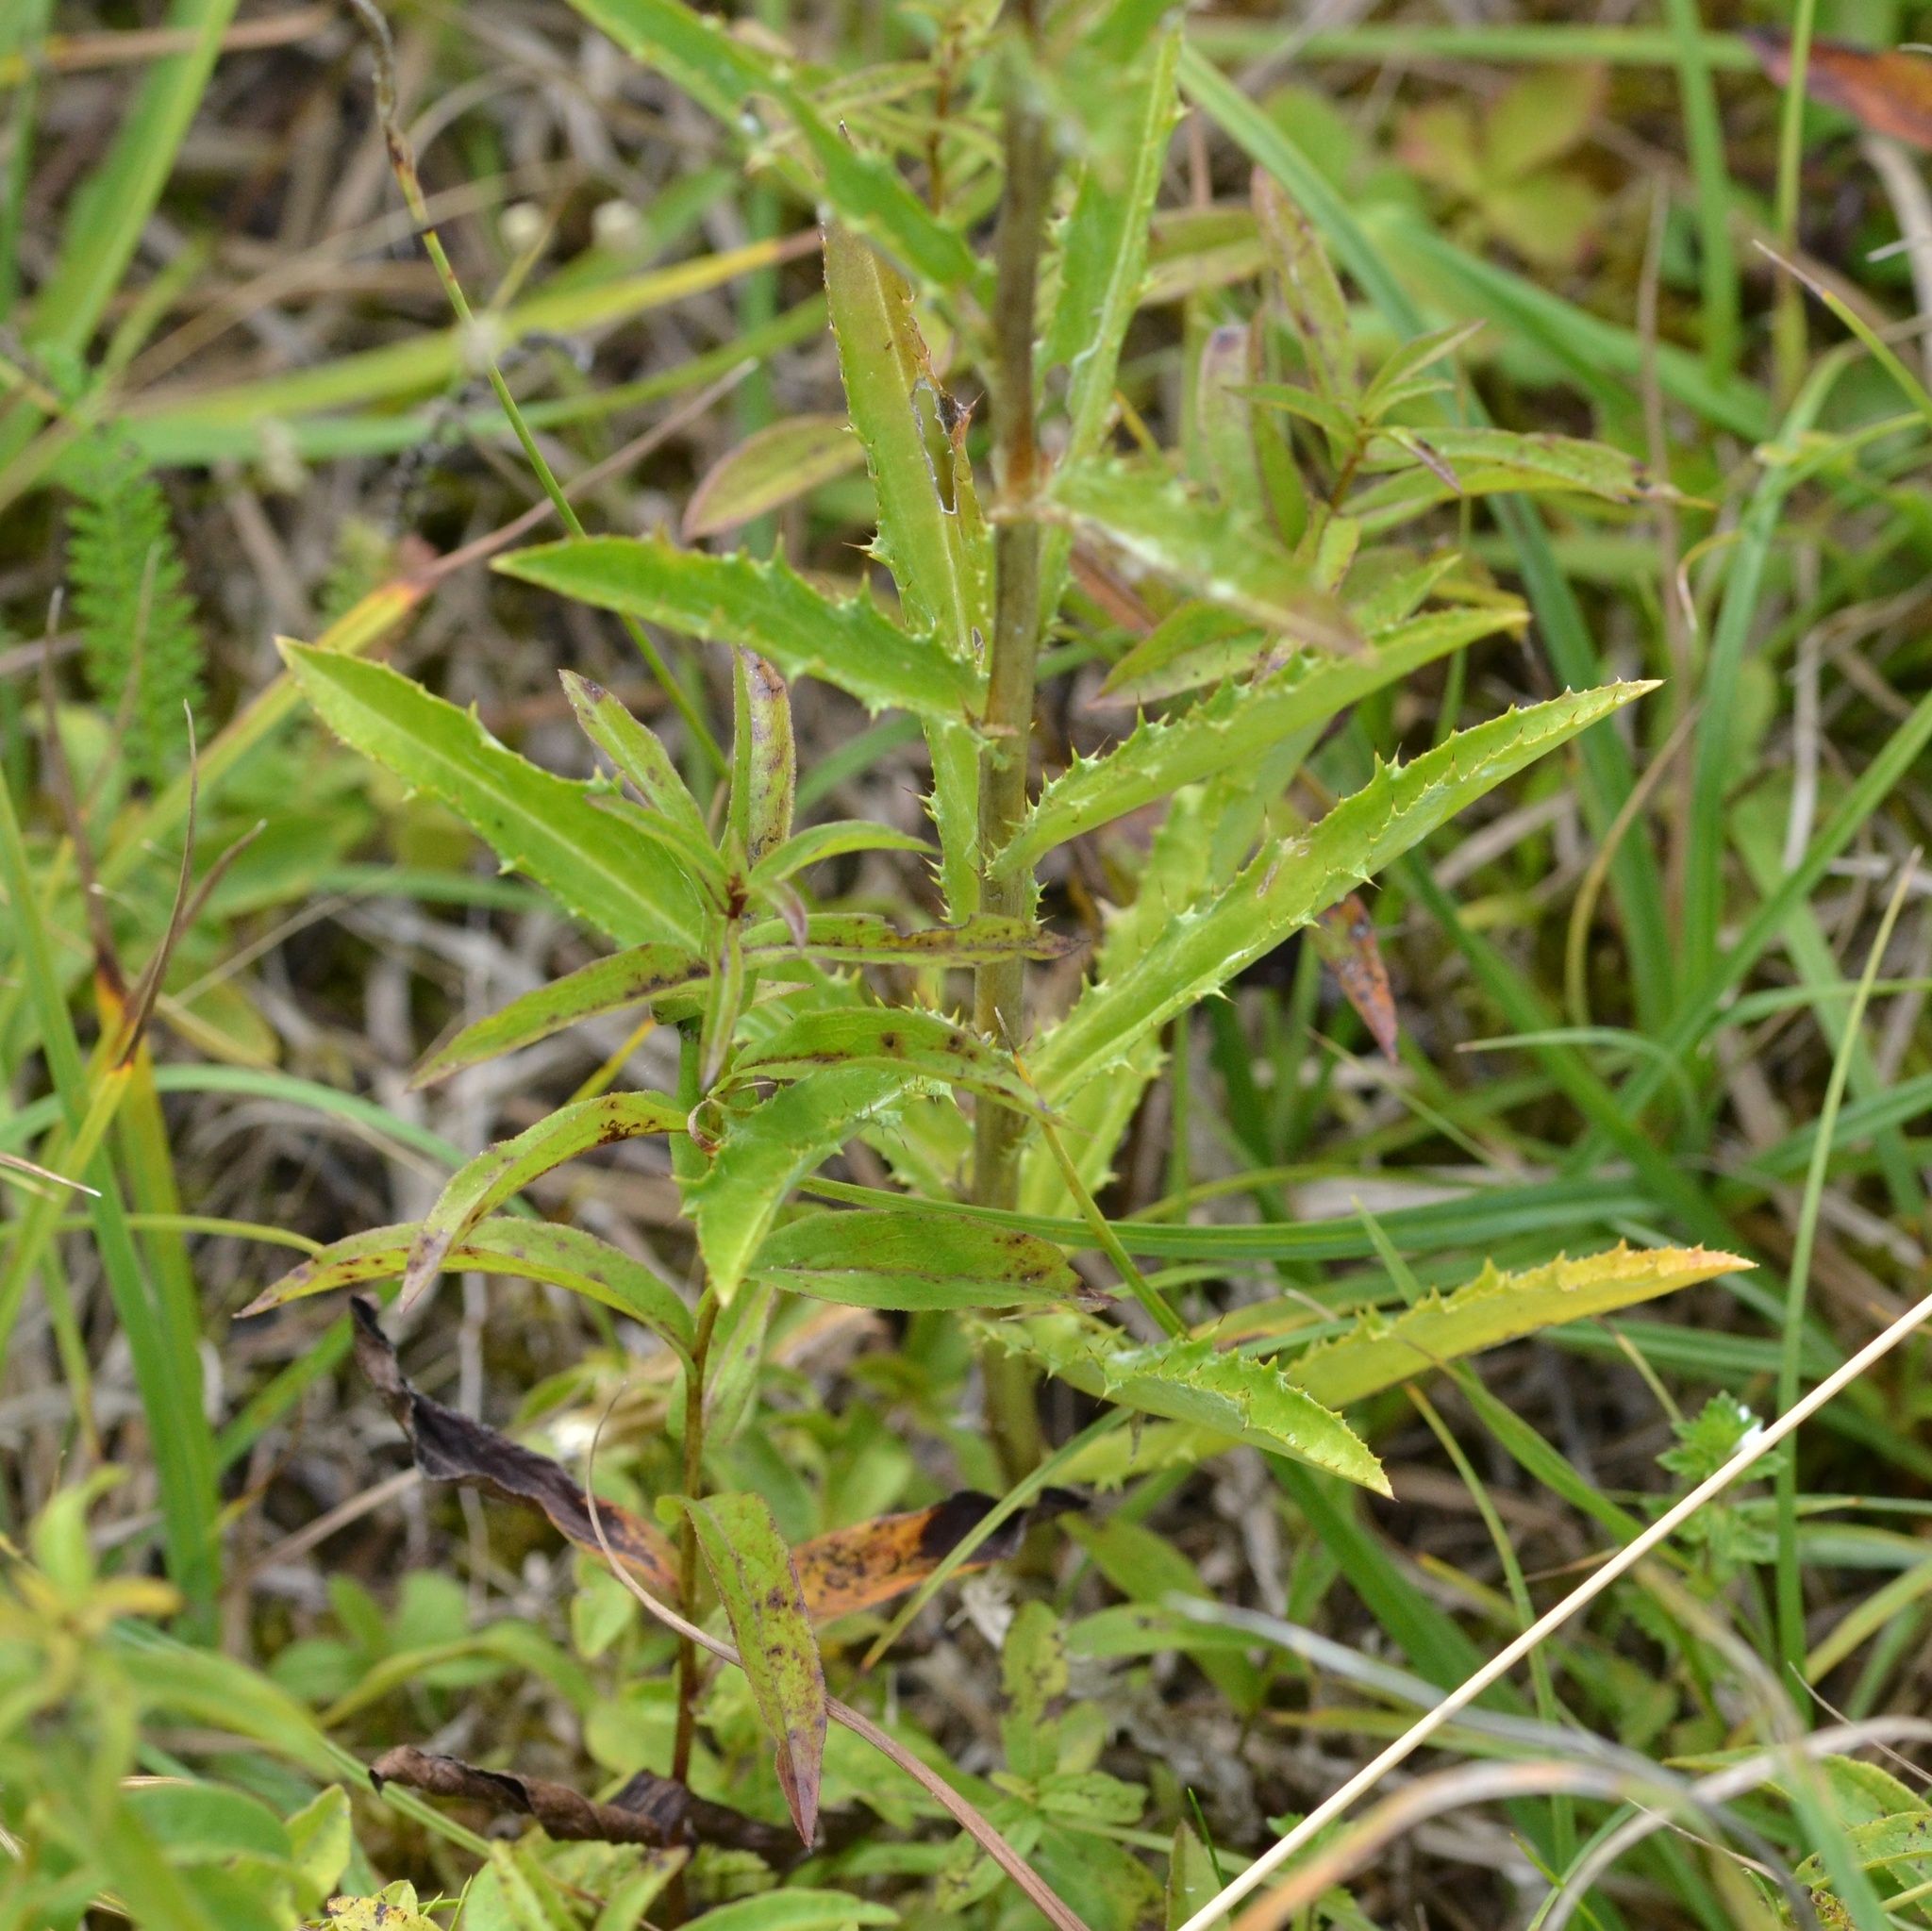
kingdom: Plantae
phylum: Tracheophyta
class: Magnoliopsida
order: Asterales
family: Asteraceae
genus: Carlina
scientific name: Carlina vulgaris
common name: Carline thistle
